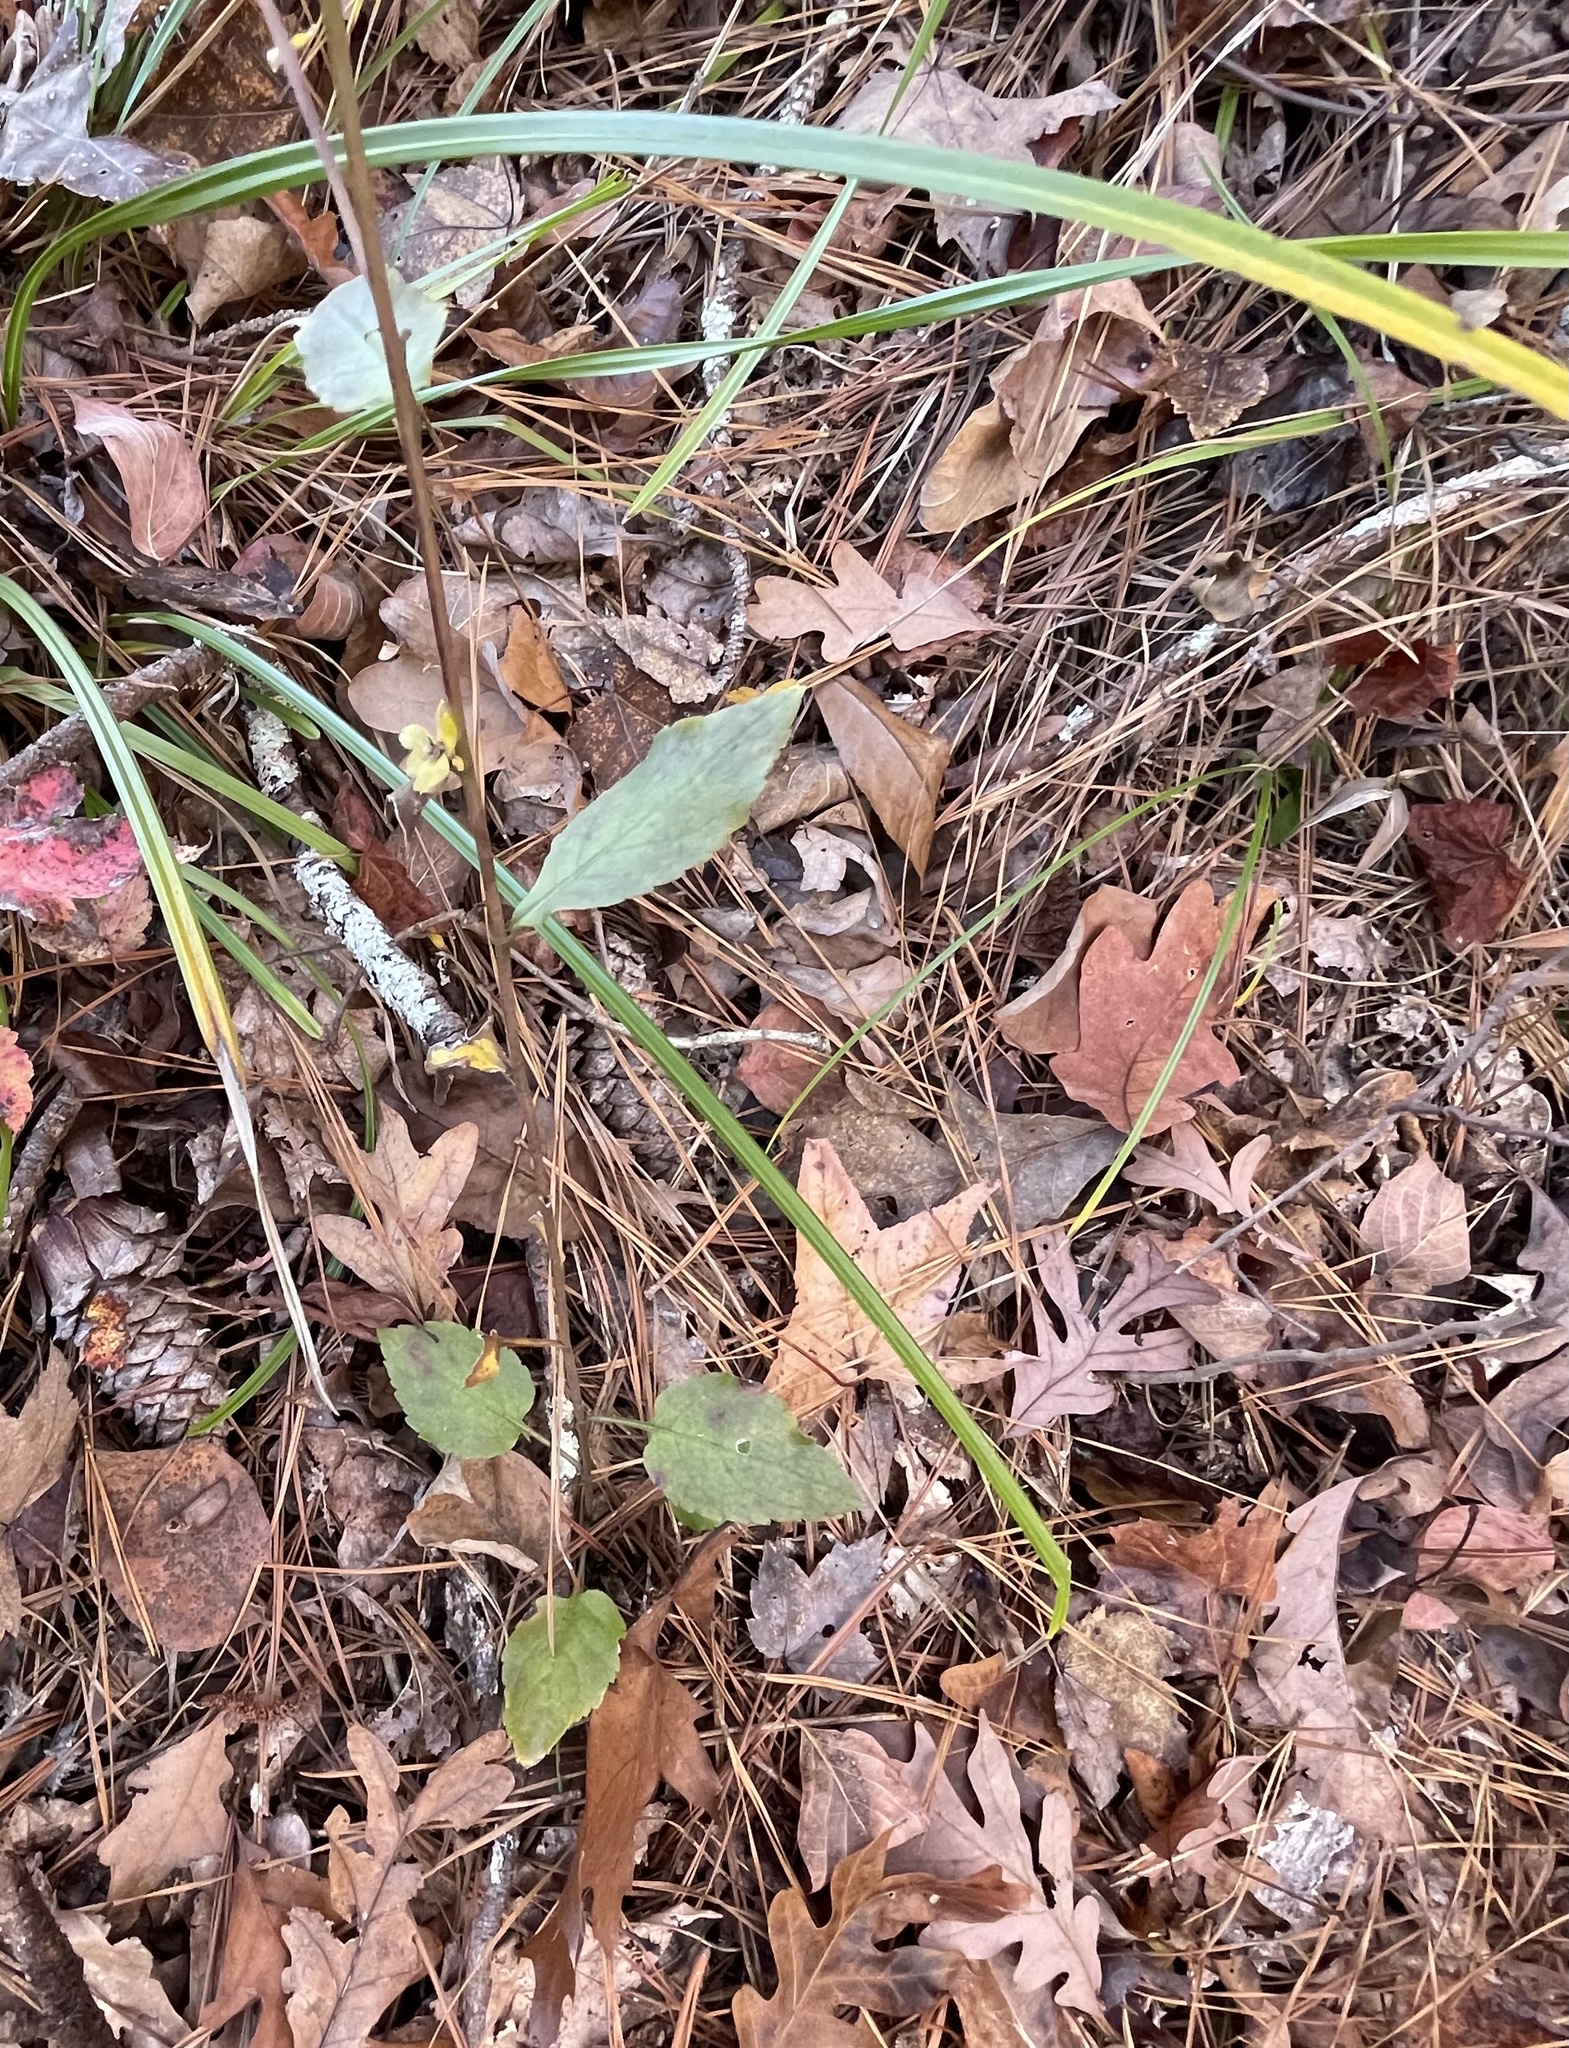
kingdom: Plantae
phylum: Tracheophyta
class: Magnoliopsida
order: Asterales
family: Asteraceae
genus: Eurybia
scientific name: Eurybia mirabilis
